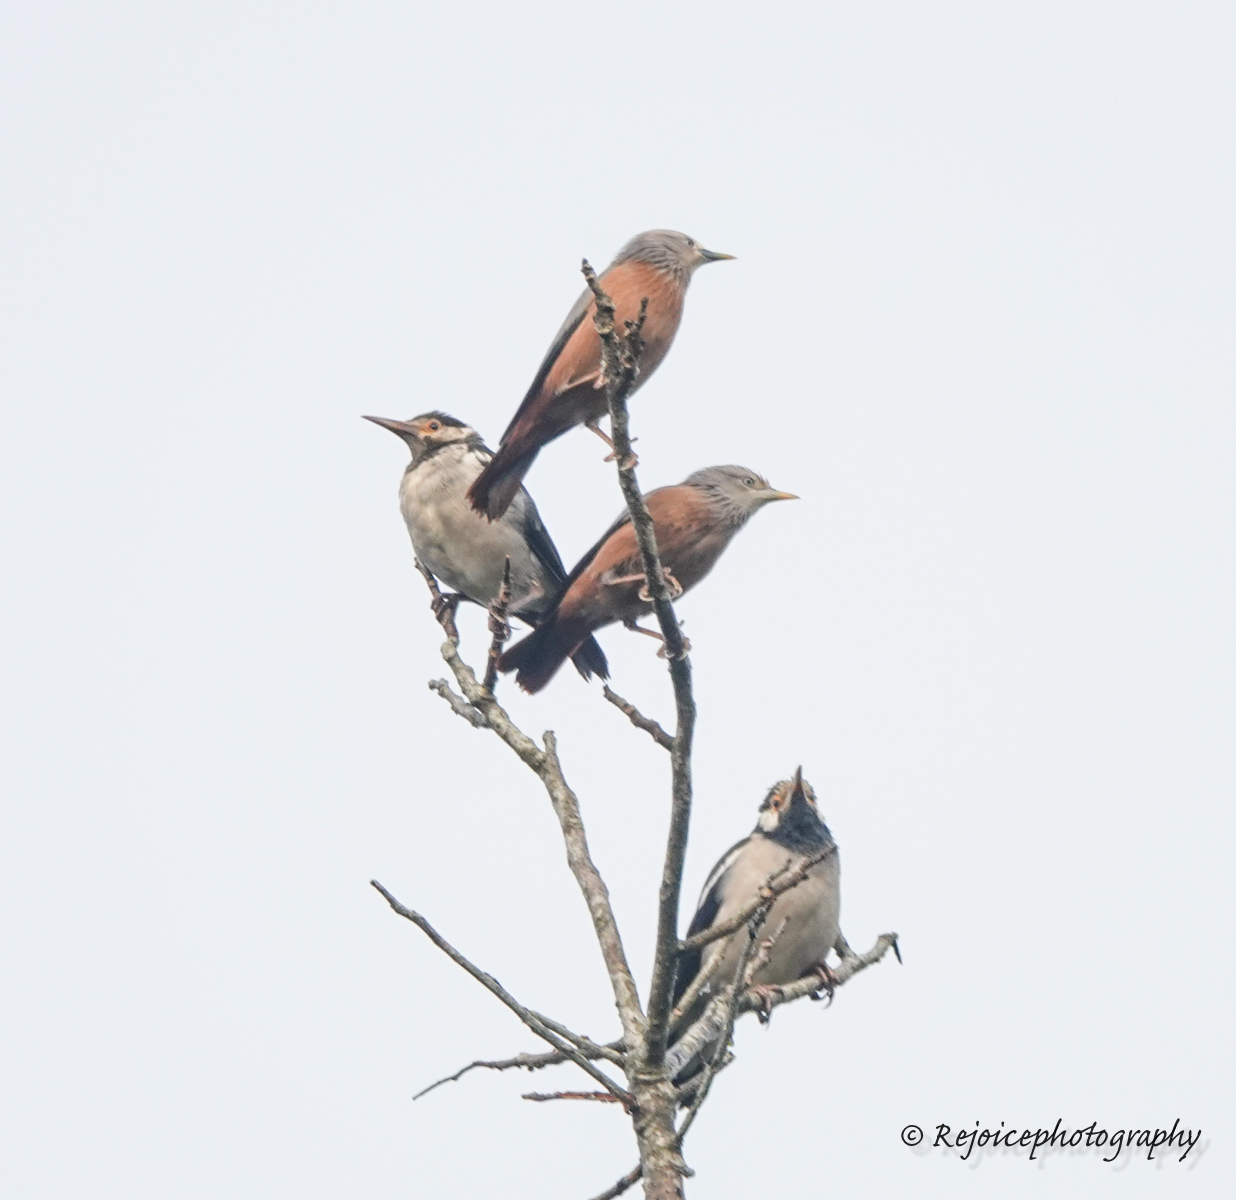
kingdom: Animalia
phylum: Chordata
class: Aves
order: Passeriformes
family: Sturnidae
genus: Sturnia
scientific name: Sturnia malabarica
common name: Chestnut-tailed starling
